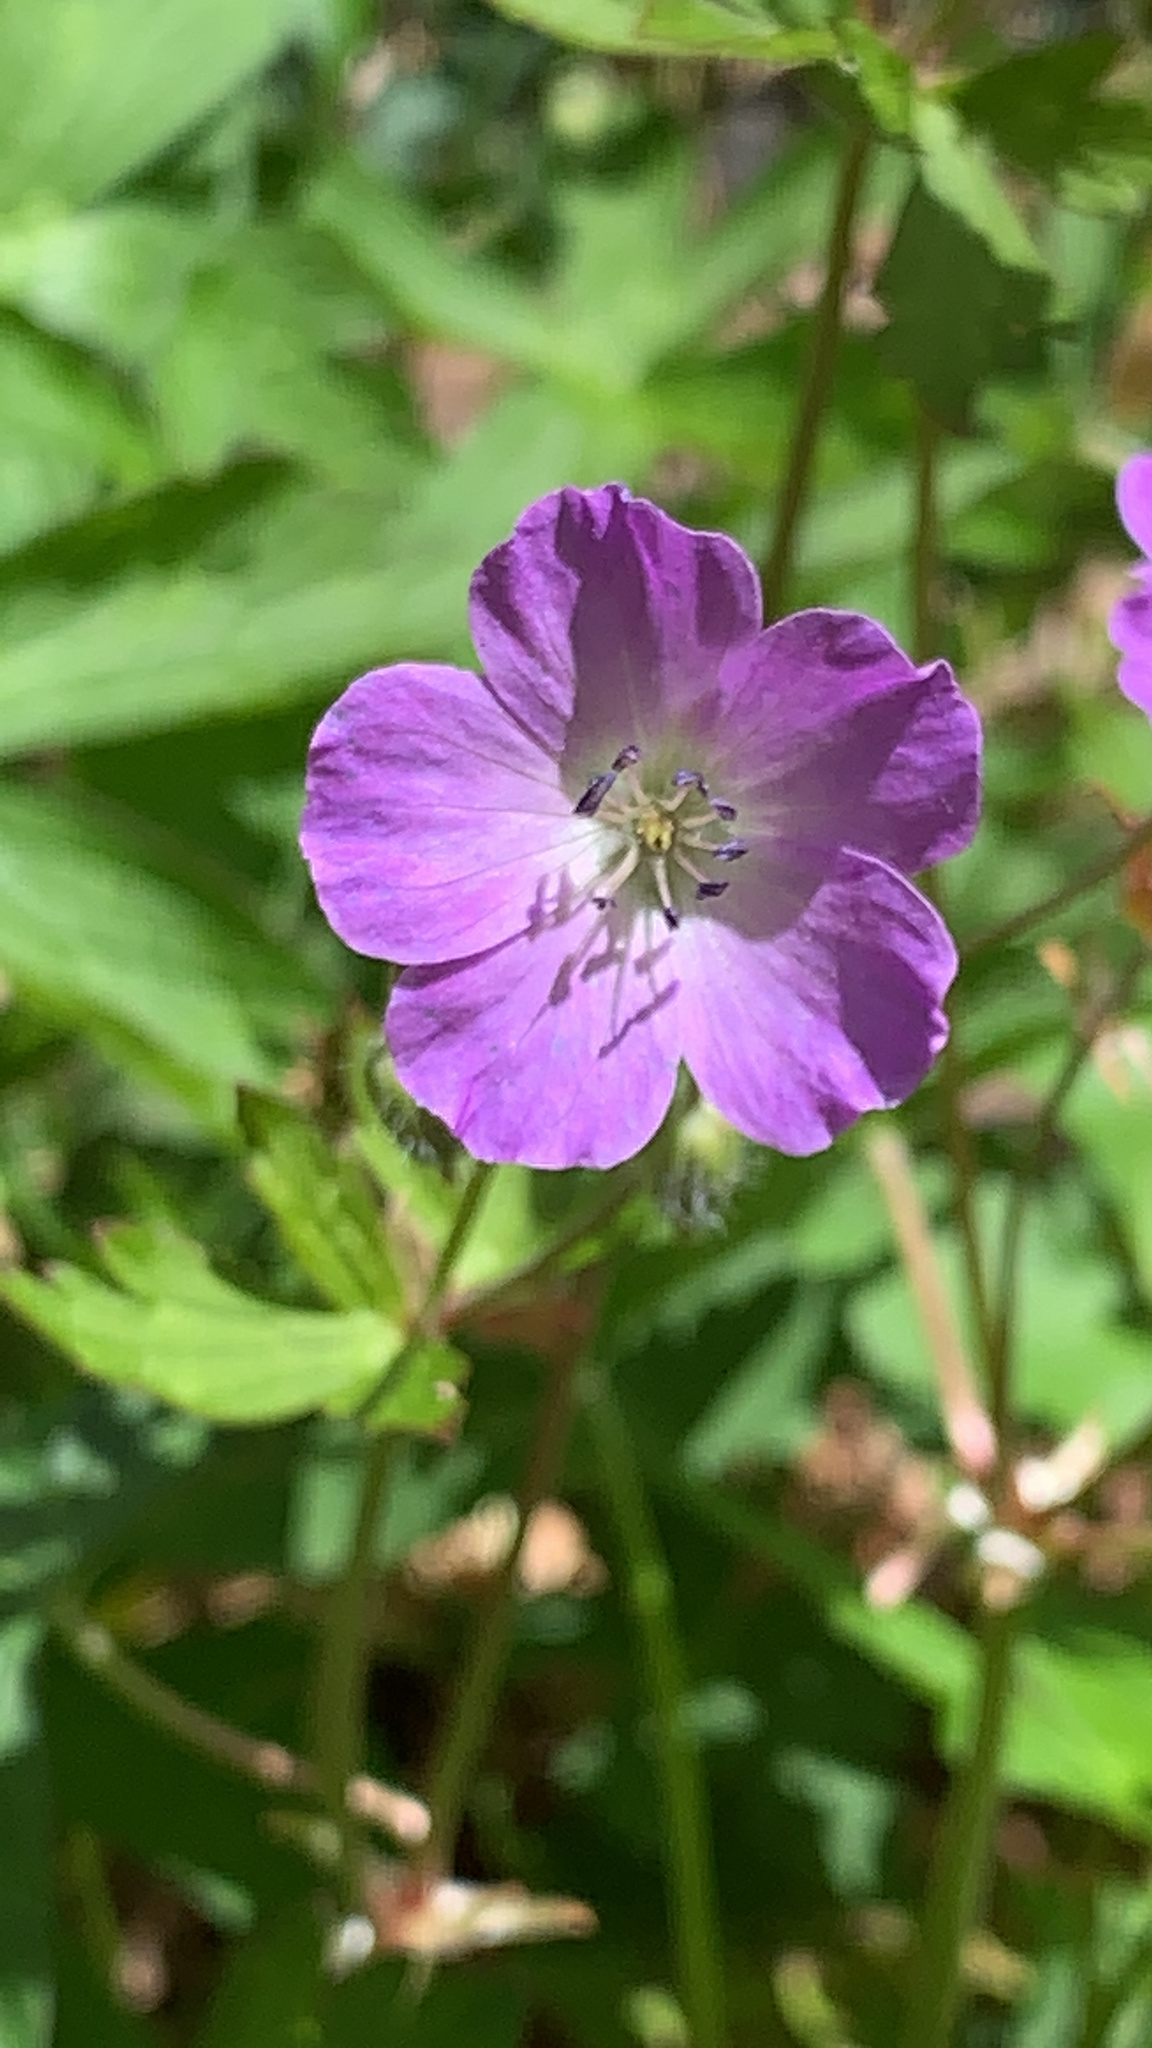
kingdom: Plantae
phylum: Tracheophyta
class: Magnoliopsida
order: Geraniales
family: Geraniaceae
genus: Geranium
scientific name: Geranium maculatum
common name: Spotted geranium
